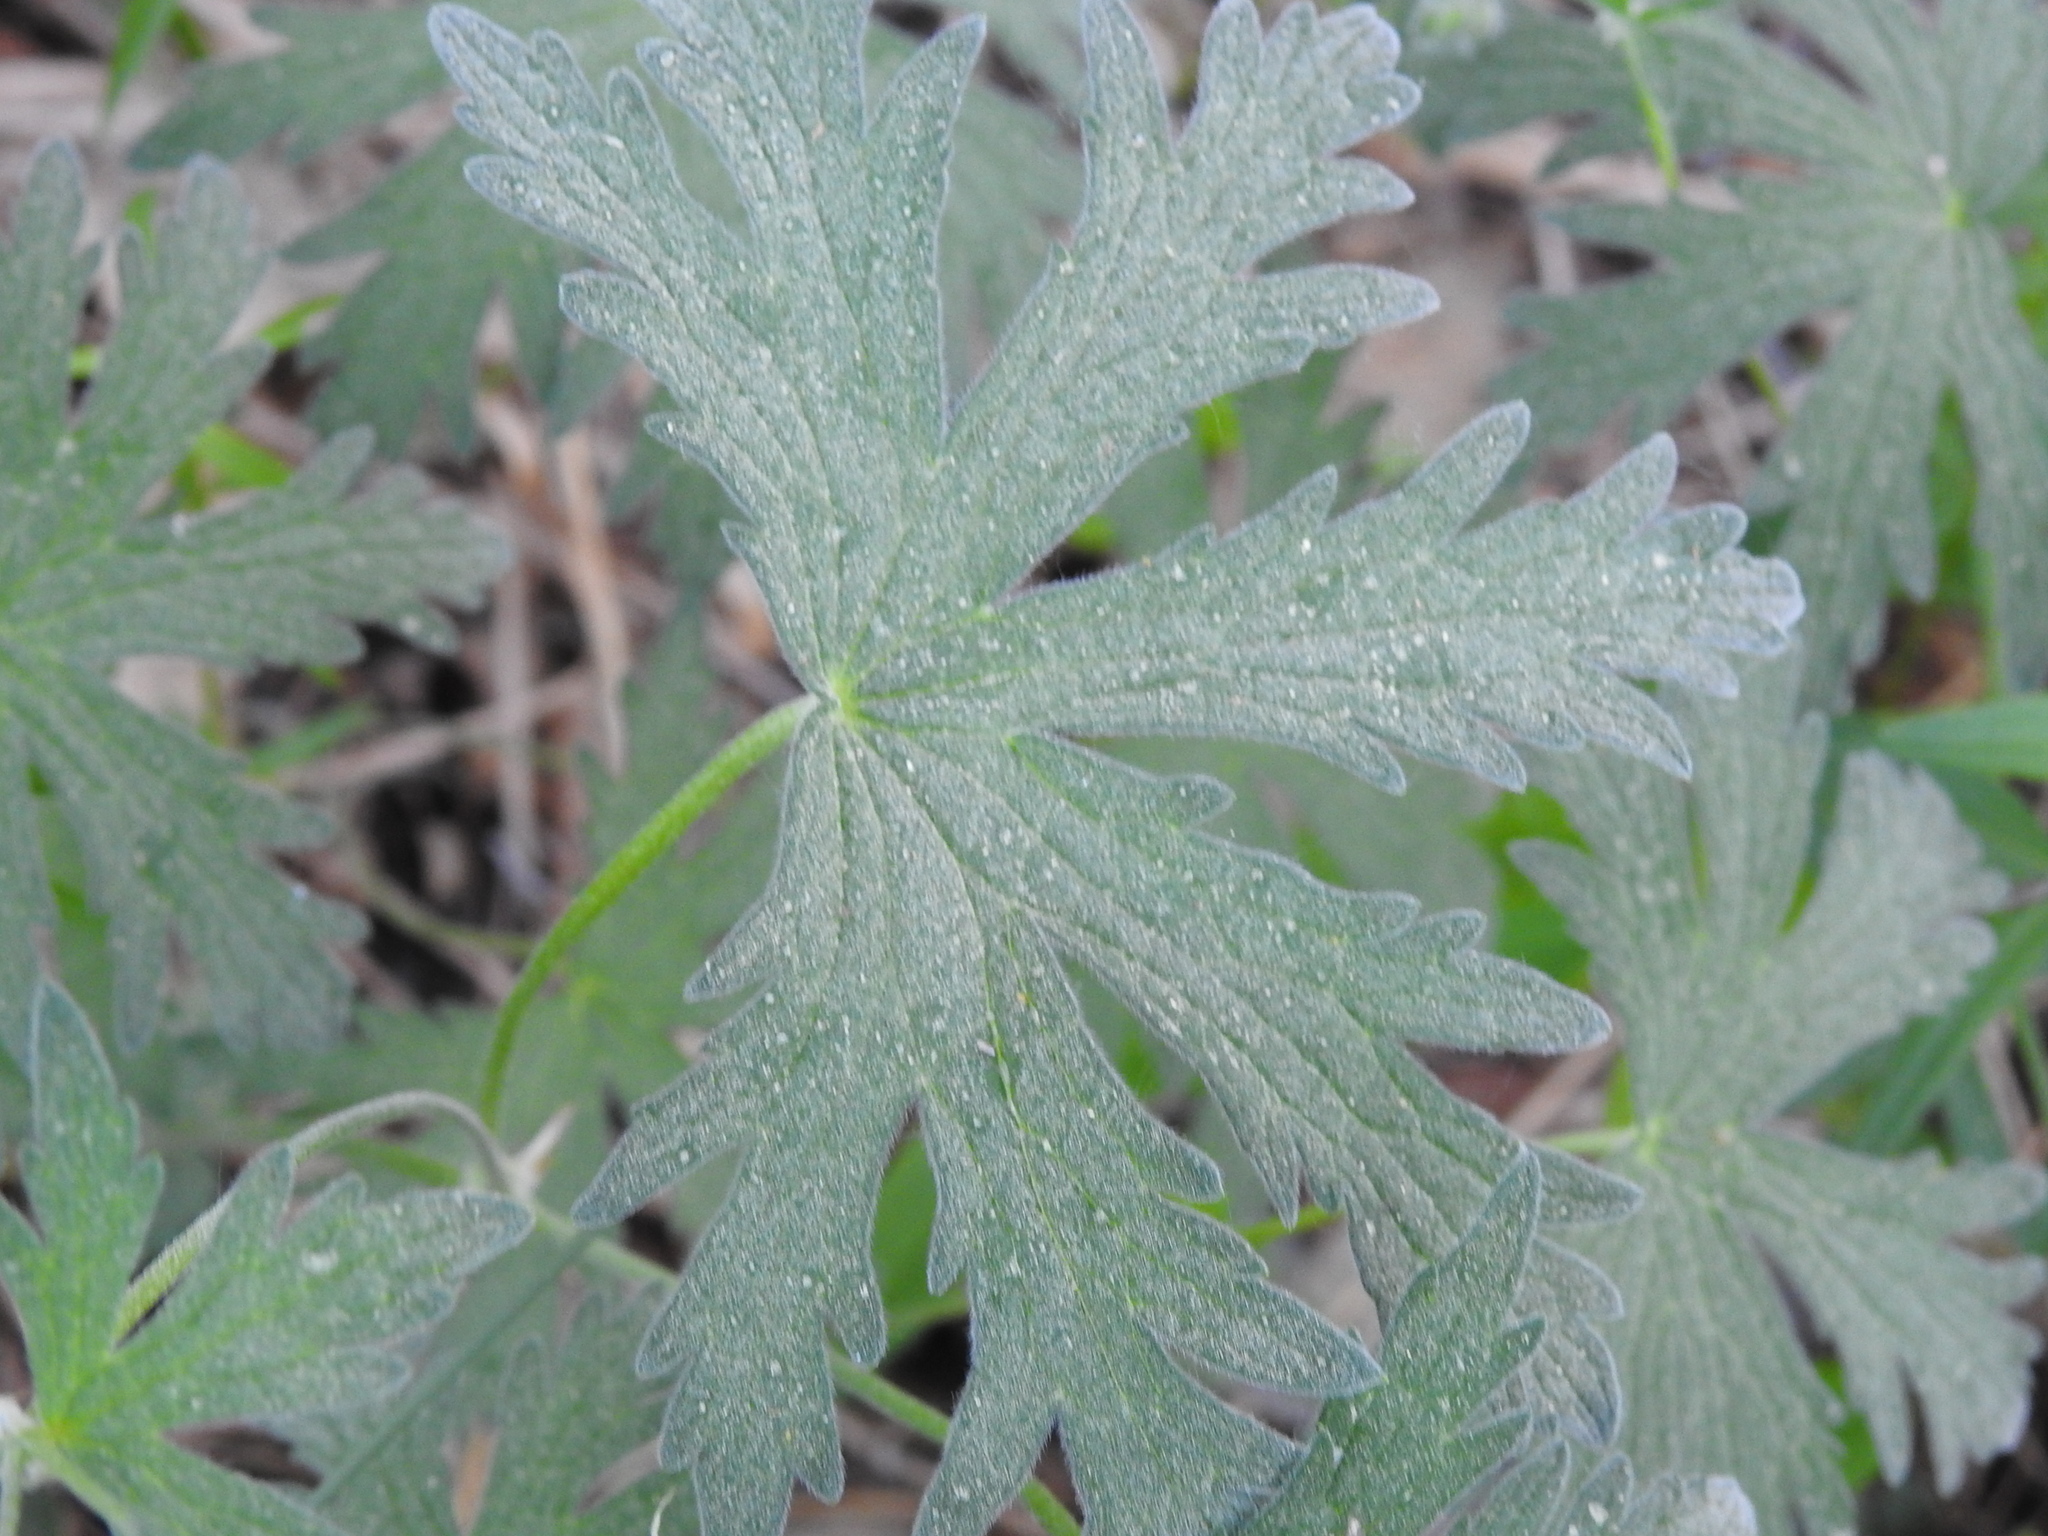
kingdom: Plantae
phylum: Tracheophyta
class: Magnoliopsida
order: Geraniales
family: Geraniaceae
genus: Geranium
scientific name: Geranium sylvaticum
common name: Wood crane's-bill
